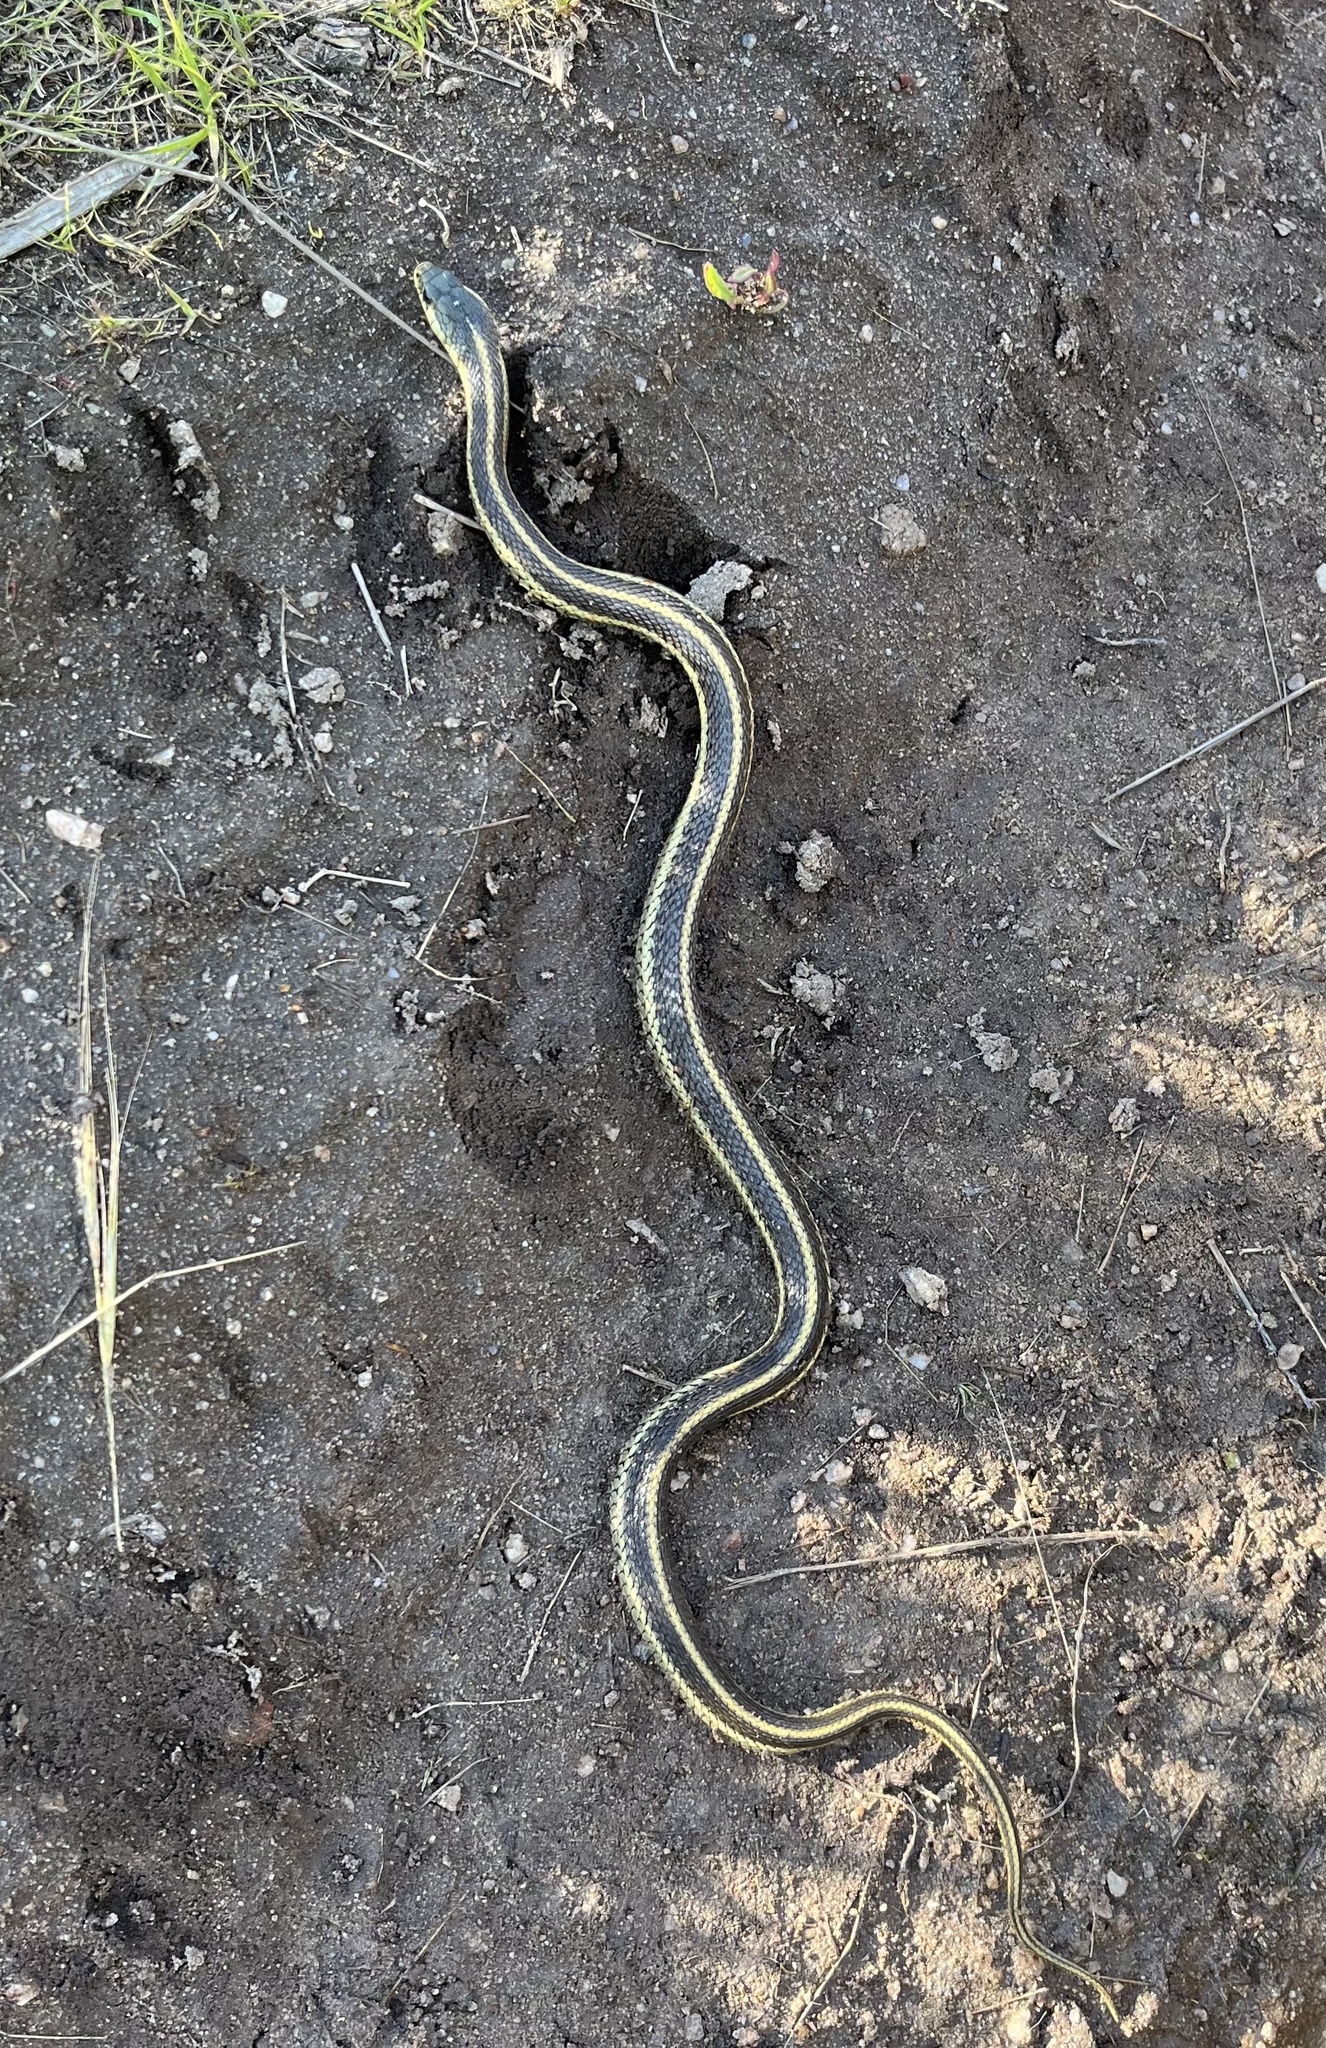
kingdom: Animalia
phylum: Chordata
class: Squamata
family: Colubridae
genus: Thamnophis
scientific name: Thamnophis elegans
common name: Western terrestrial garter snake
